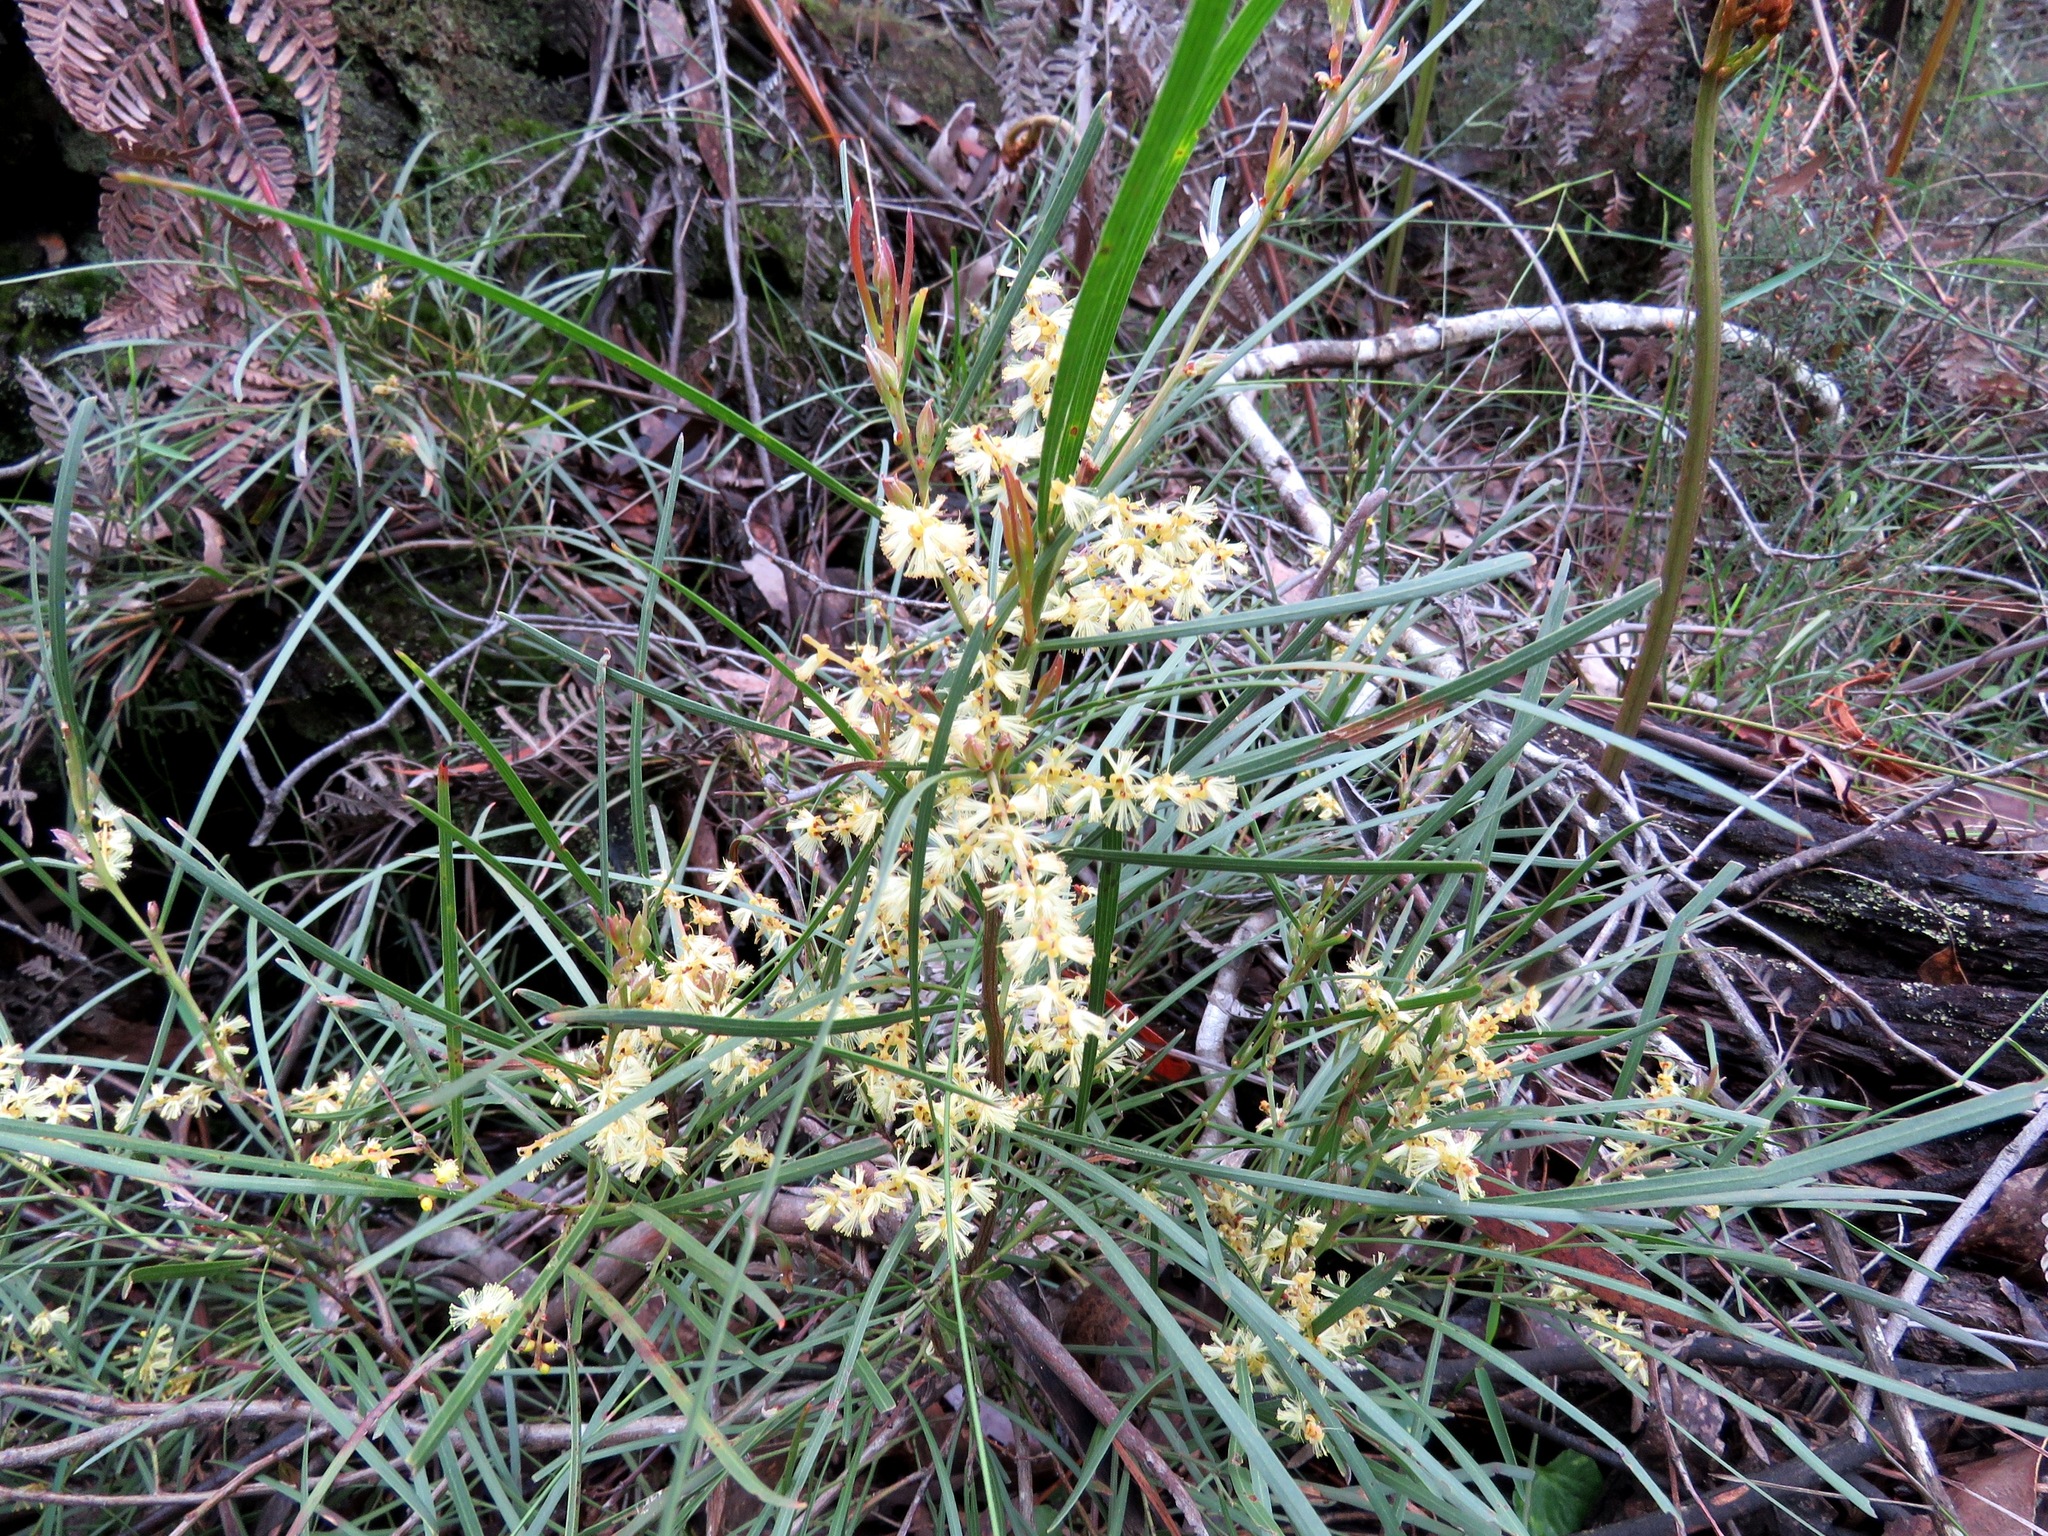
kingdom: Plantae
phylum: Tracheophyta
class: Magnoliopsida
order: Fabales
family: Fabaceae
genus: Acacia
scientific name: Acacia mucronata
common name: Variable sallow wattle
